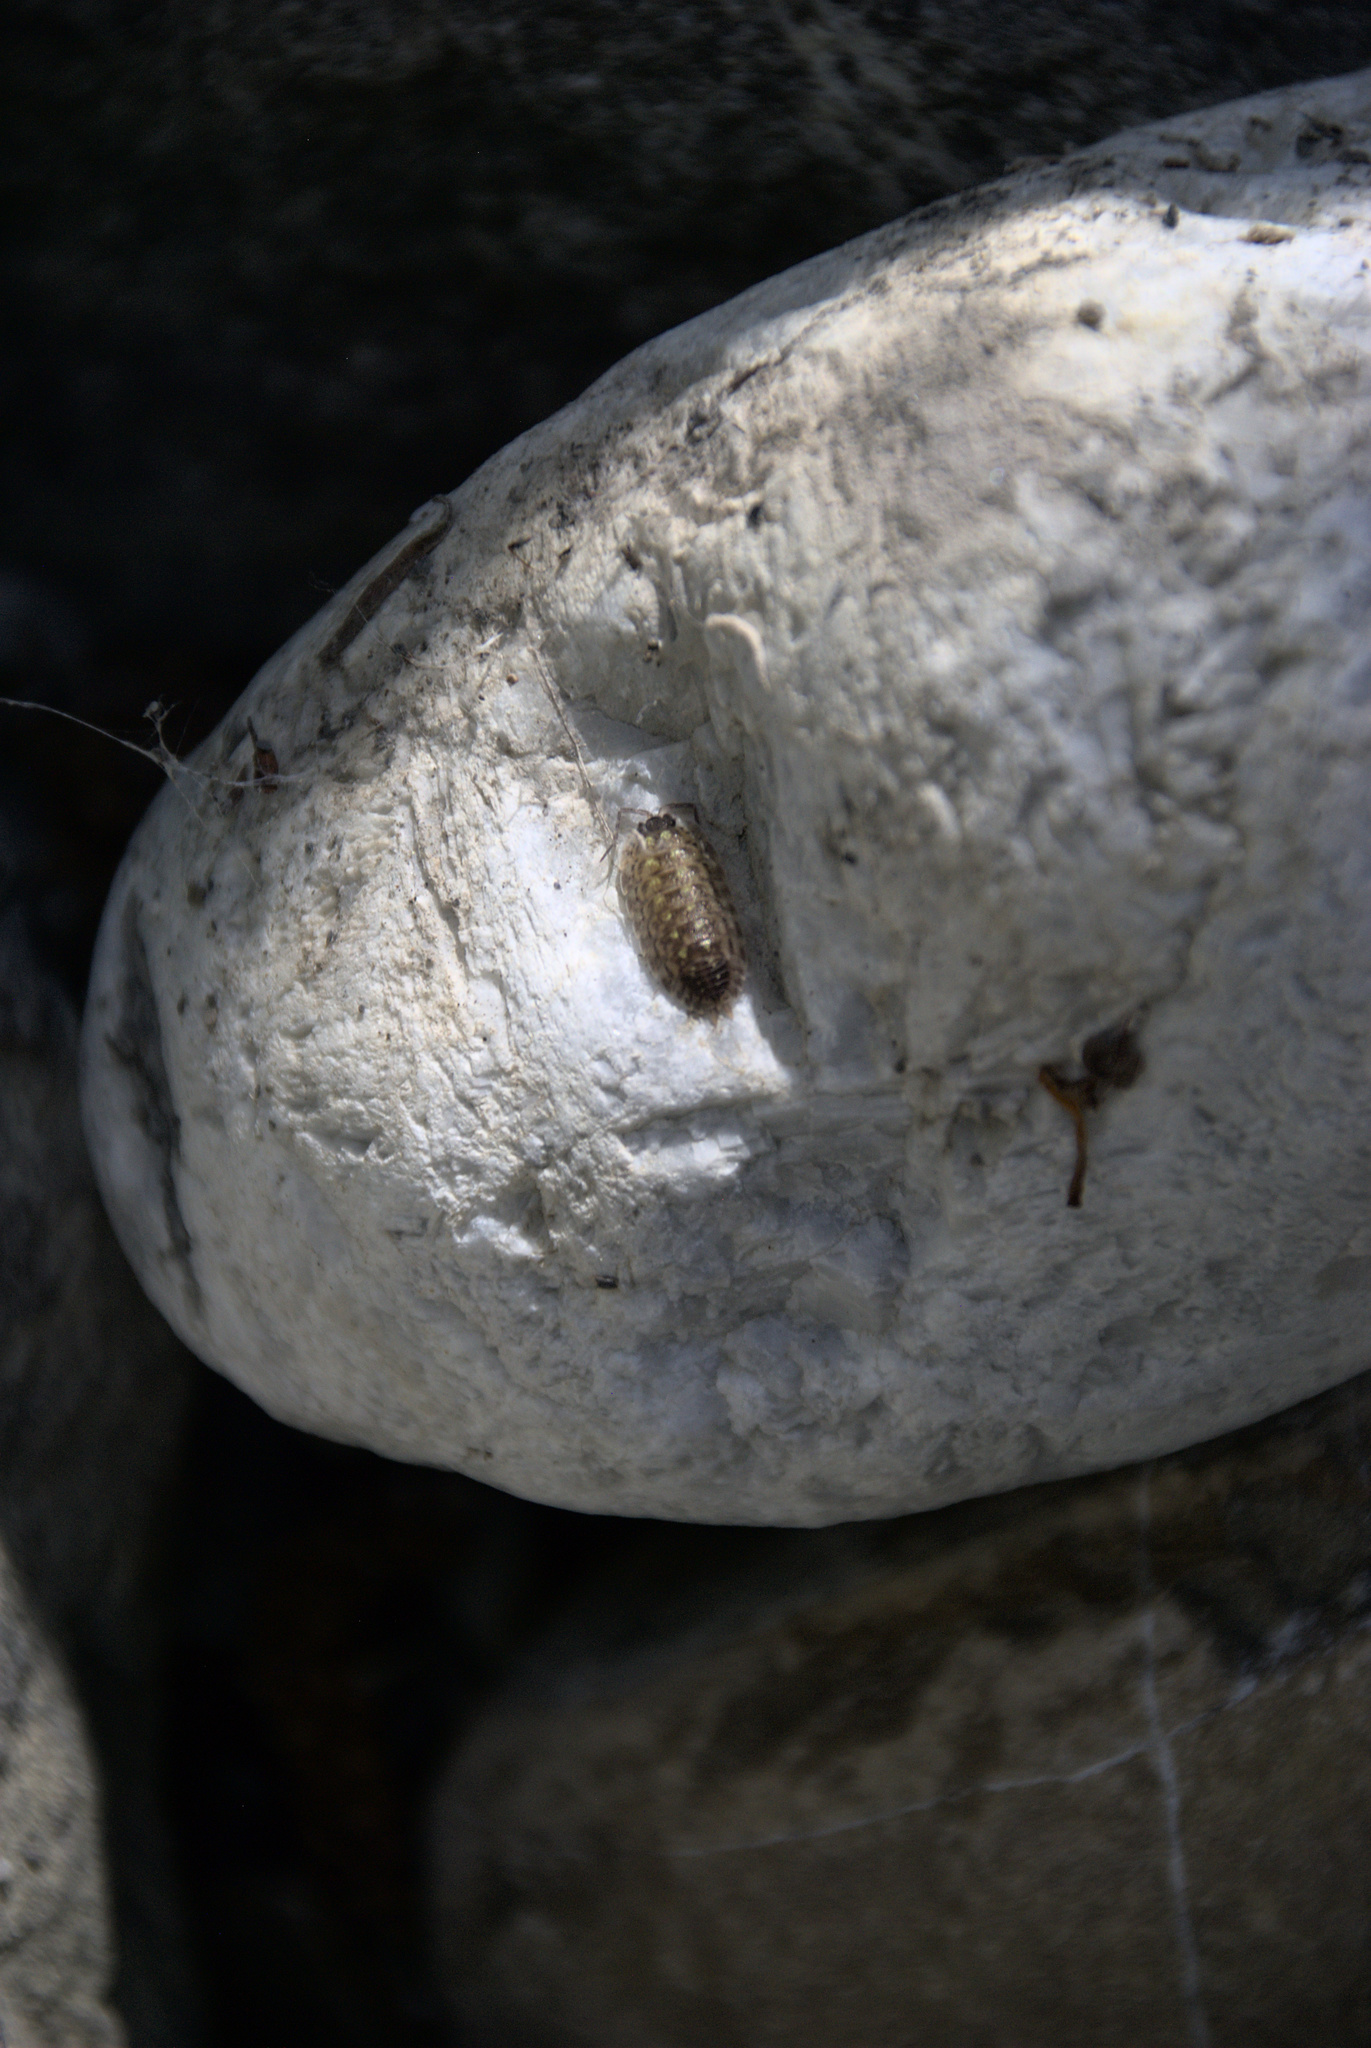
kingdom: Animalia
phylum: Arthropoda
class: Malacostraca
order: Isopoda
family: Porcellionidae
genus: Porcellio
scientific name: Porcellio spinicornis
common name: Painted woodlouse
